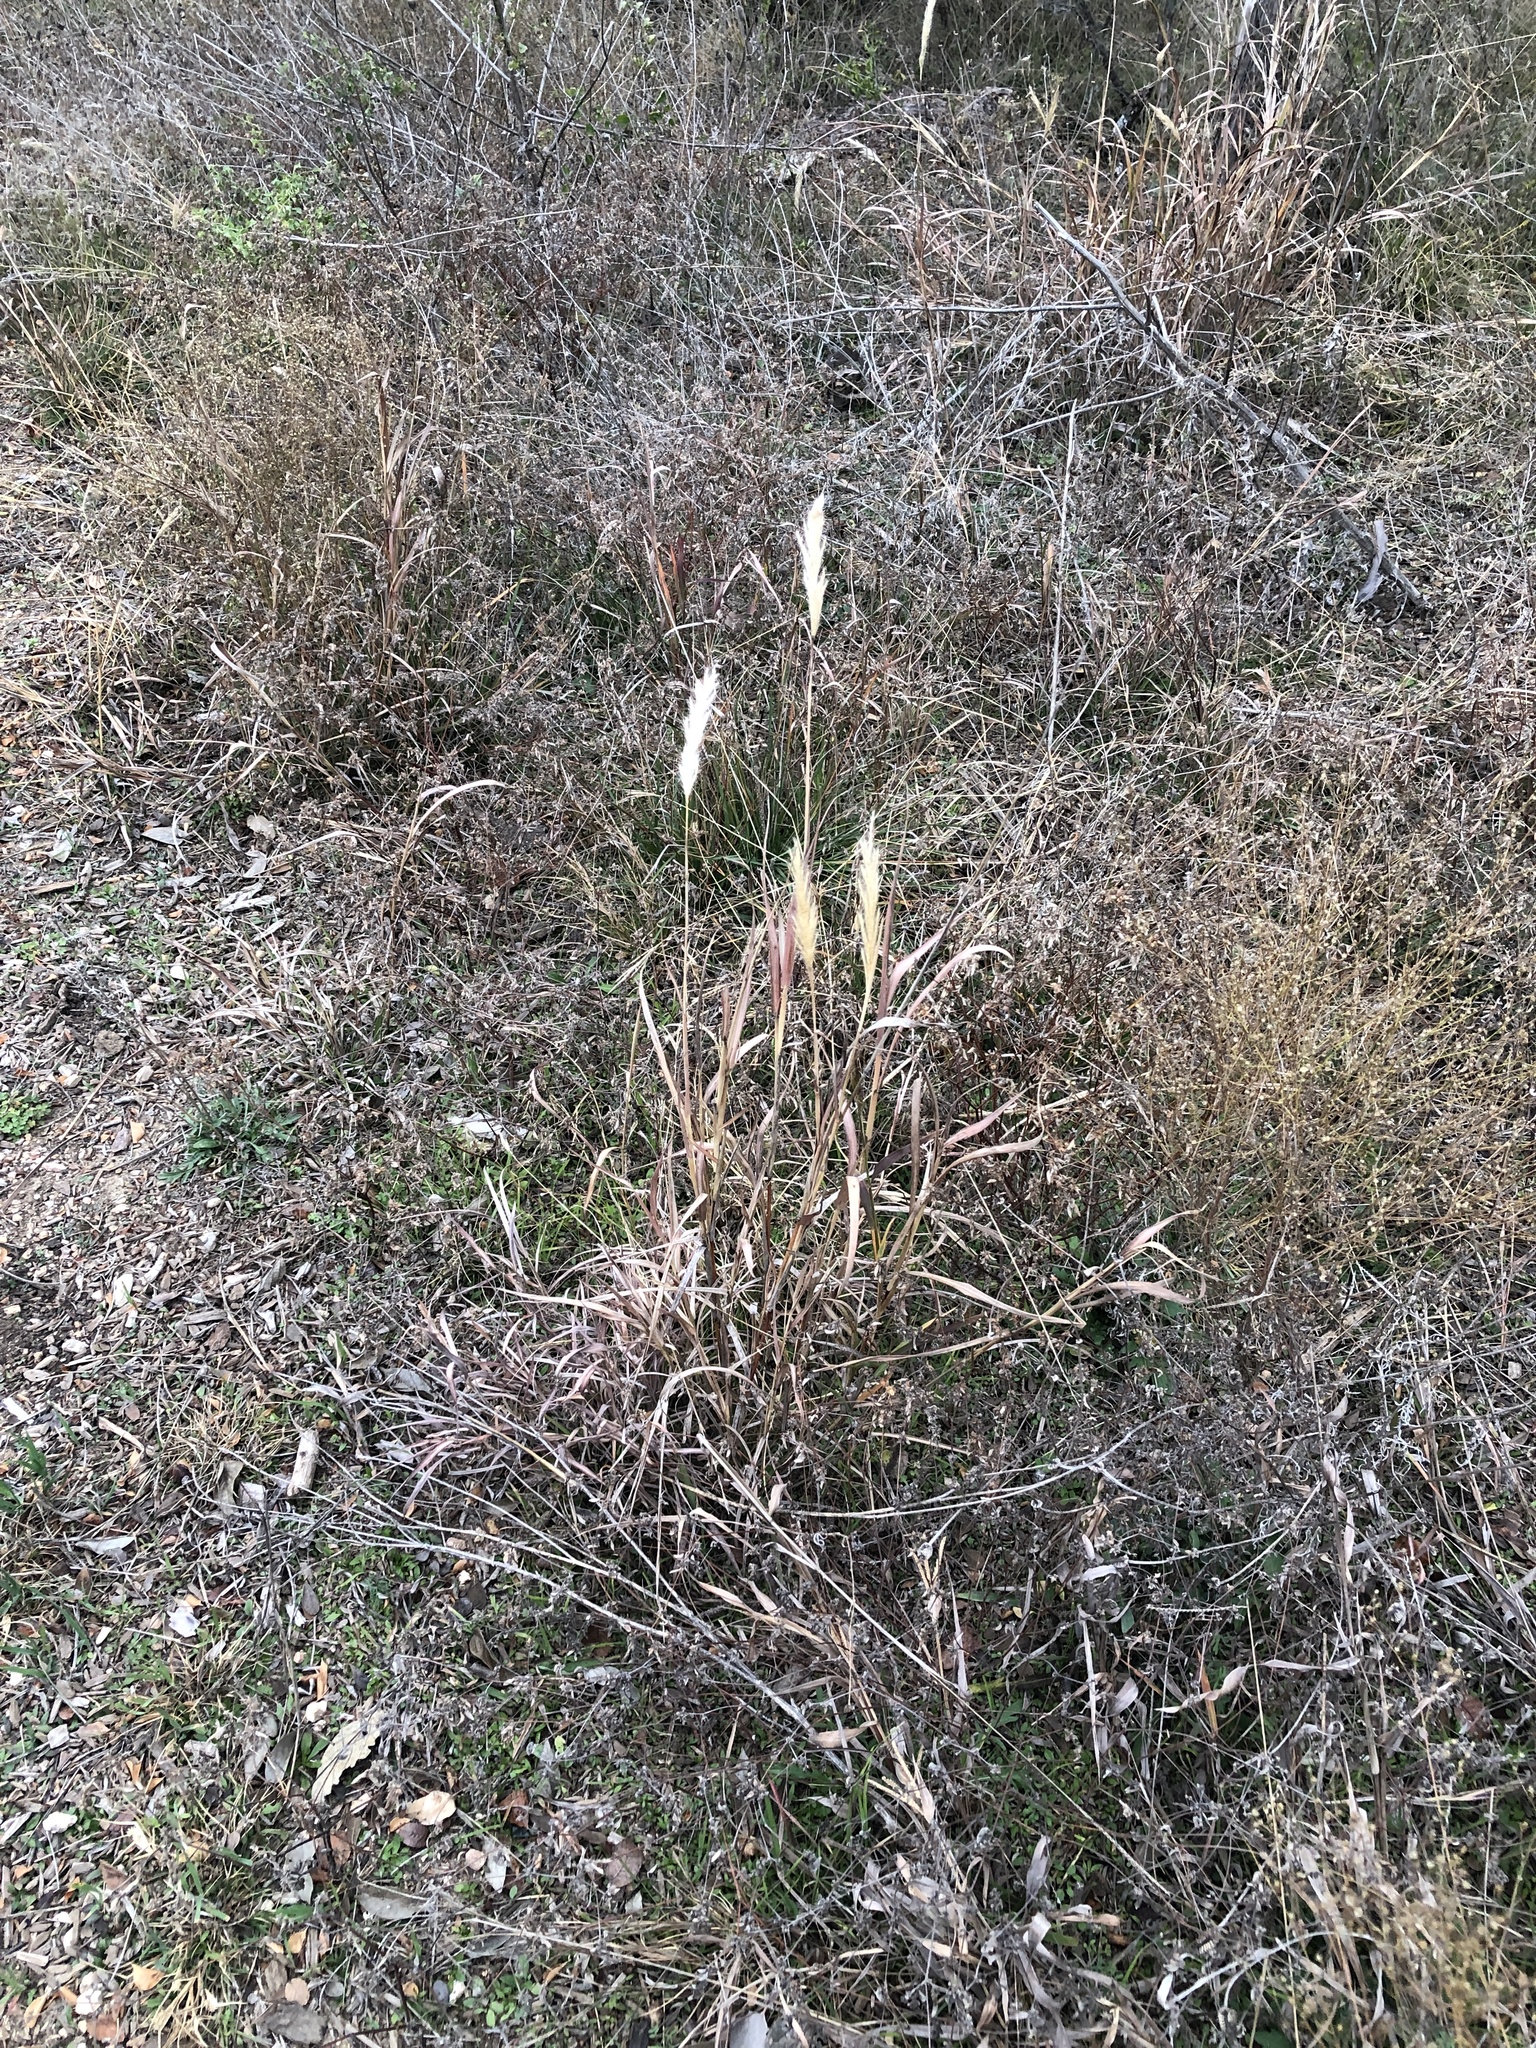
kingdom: Plantae
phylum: Tracheophyta
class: Liliopsida
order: Poales
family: Poaceae
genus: Bothriochloa
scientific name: Bothriochloa torreyana
